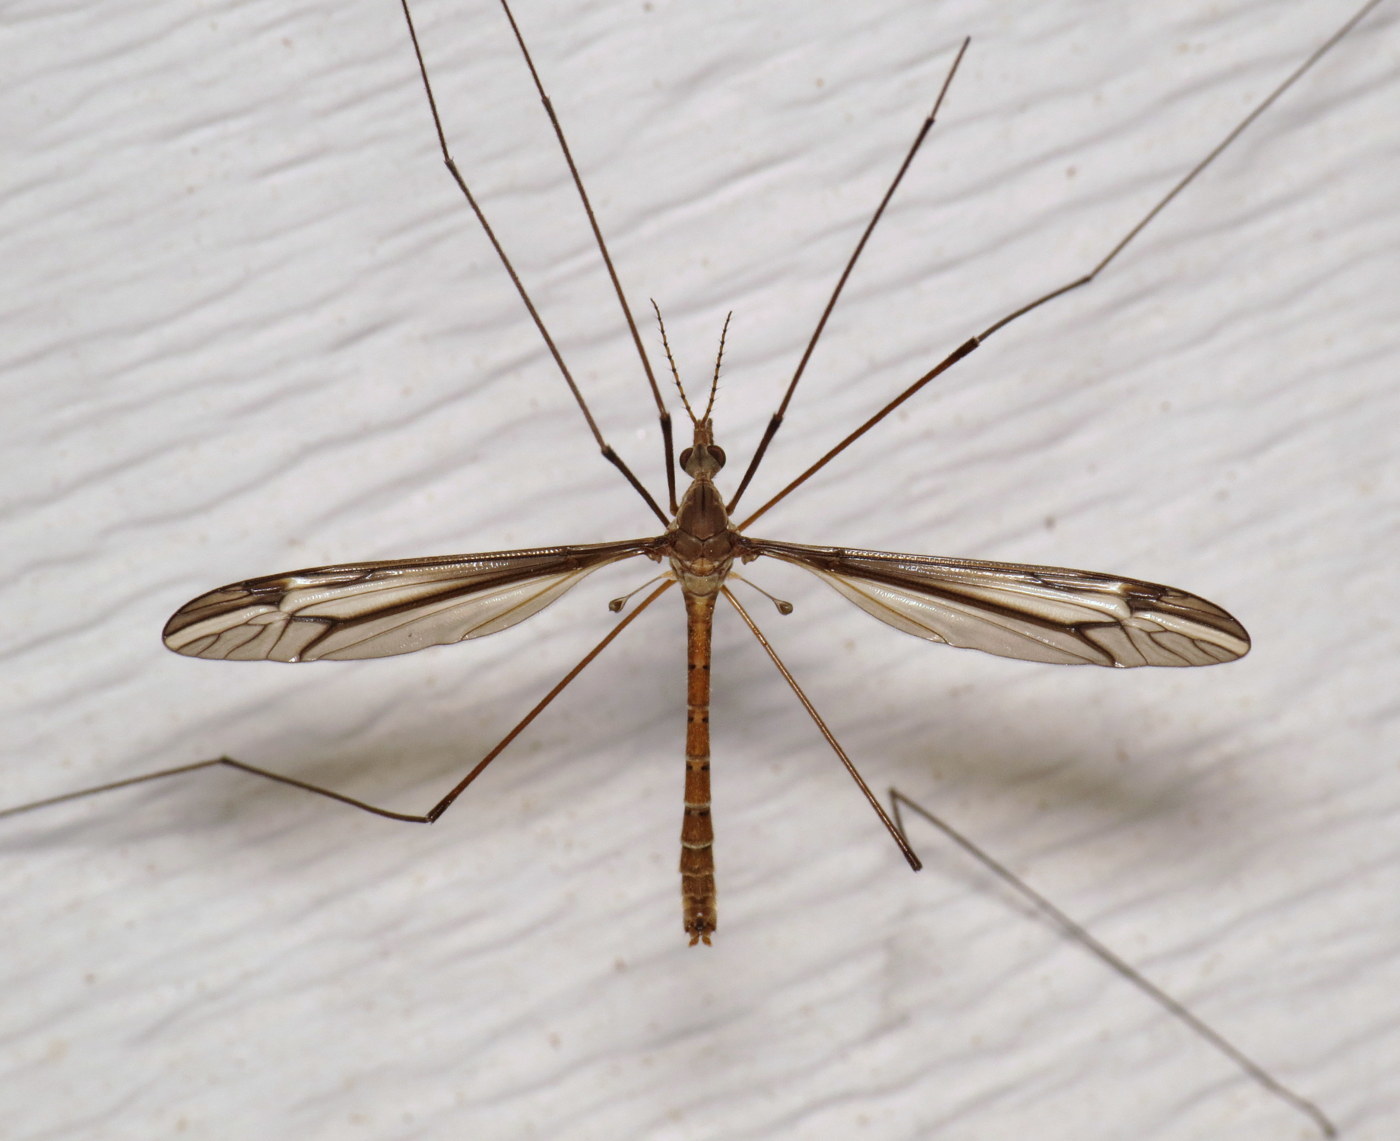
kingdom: Animalia
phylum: Arthropoda
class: Insecta
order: Diptera
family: Tipulidae
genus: Tipula
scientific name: Tipula furca
